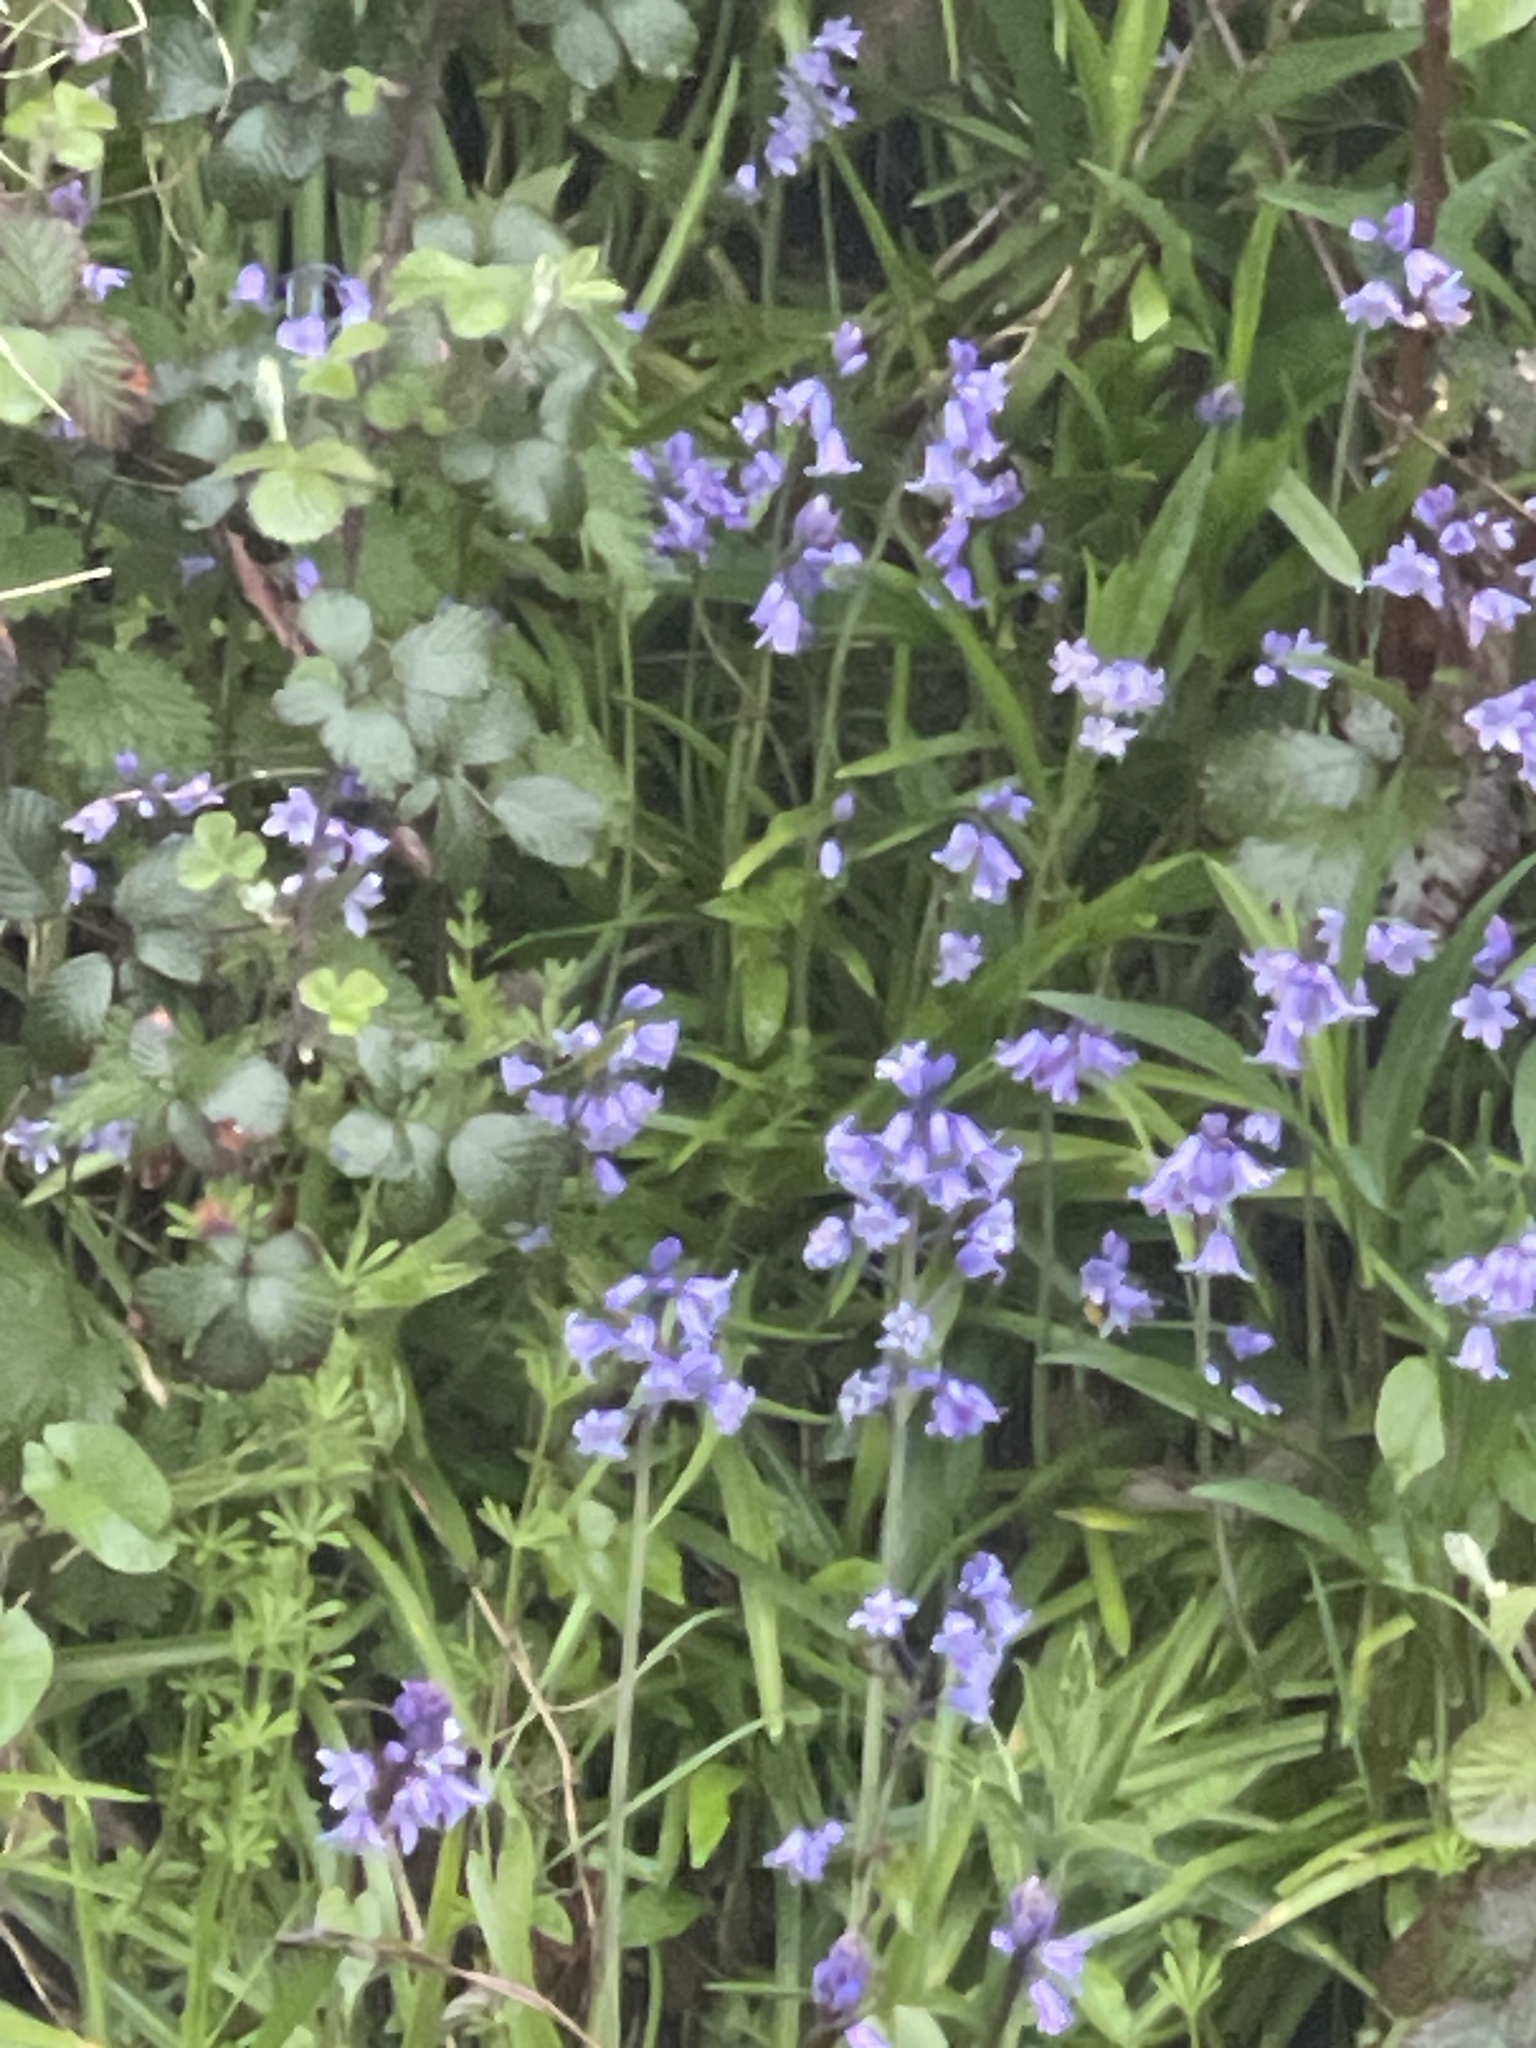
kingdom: Plantae
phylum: Tracheophyta
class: Liliopsida
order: Asparagales
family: Asparagaceae
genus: Hyacinthoides
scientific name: Hyacinthoides massartiana
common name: Hyacinthoides
